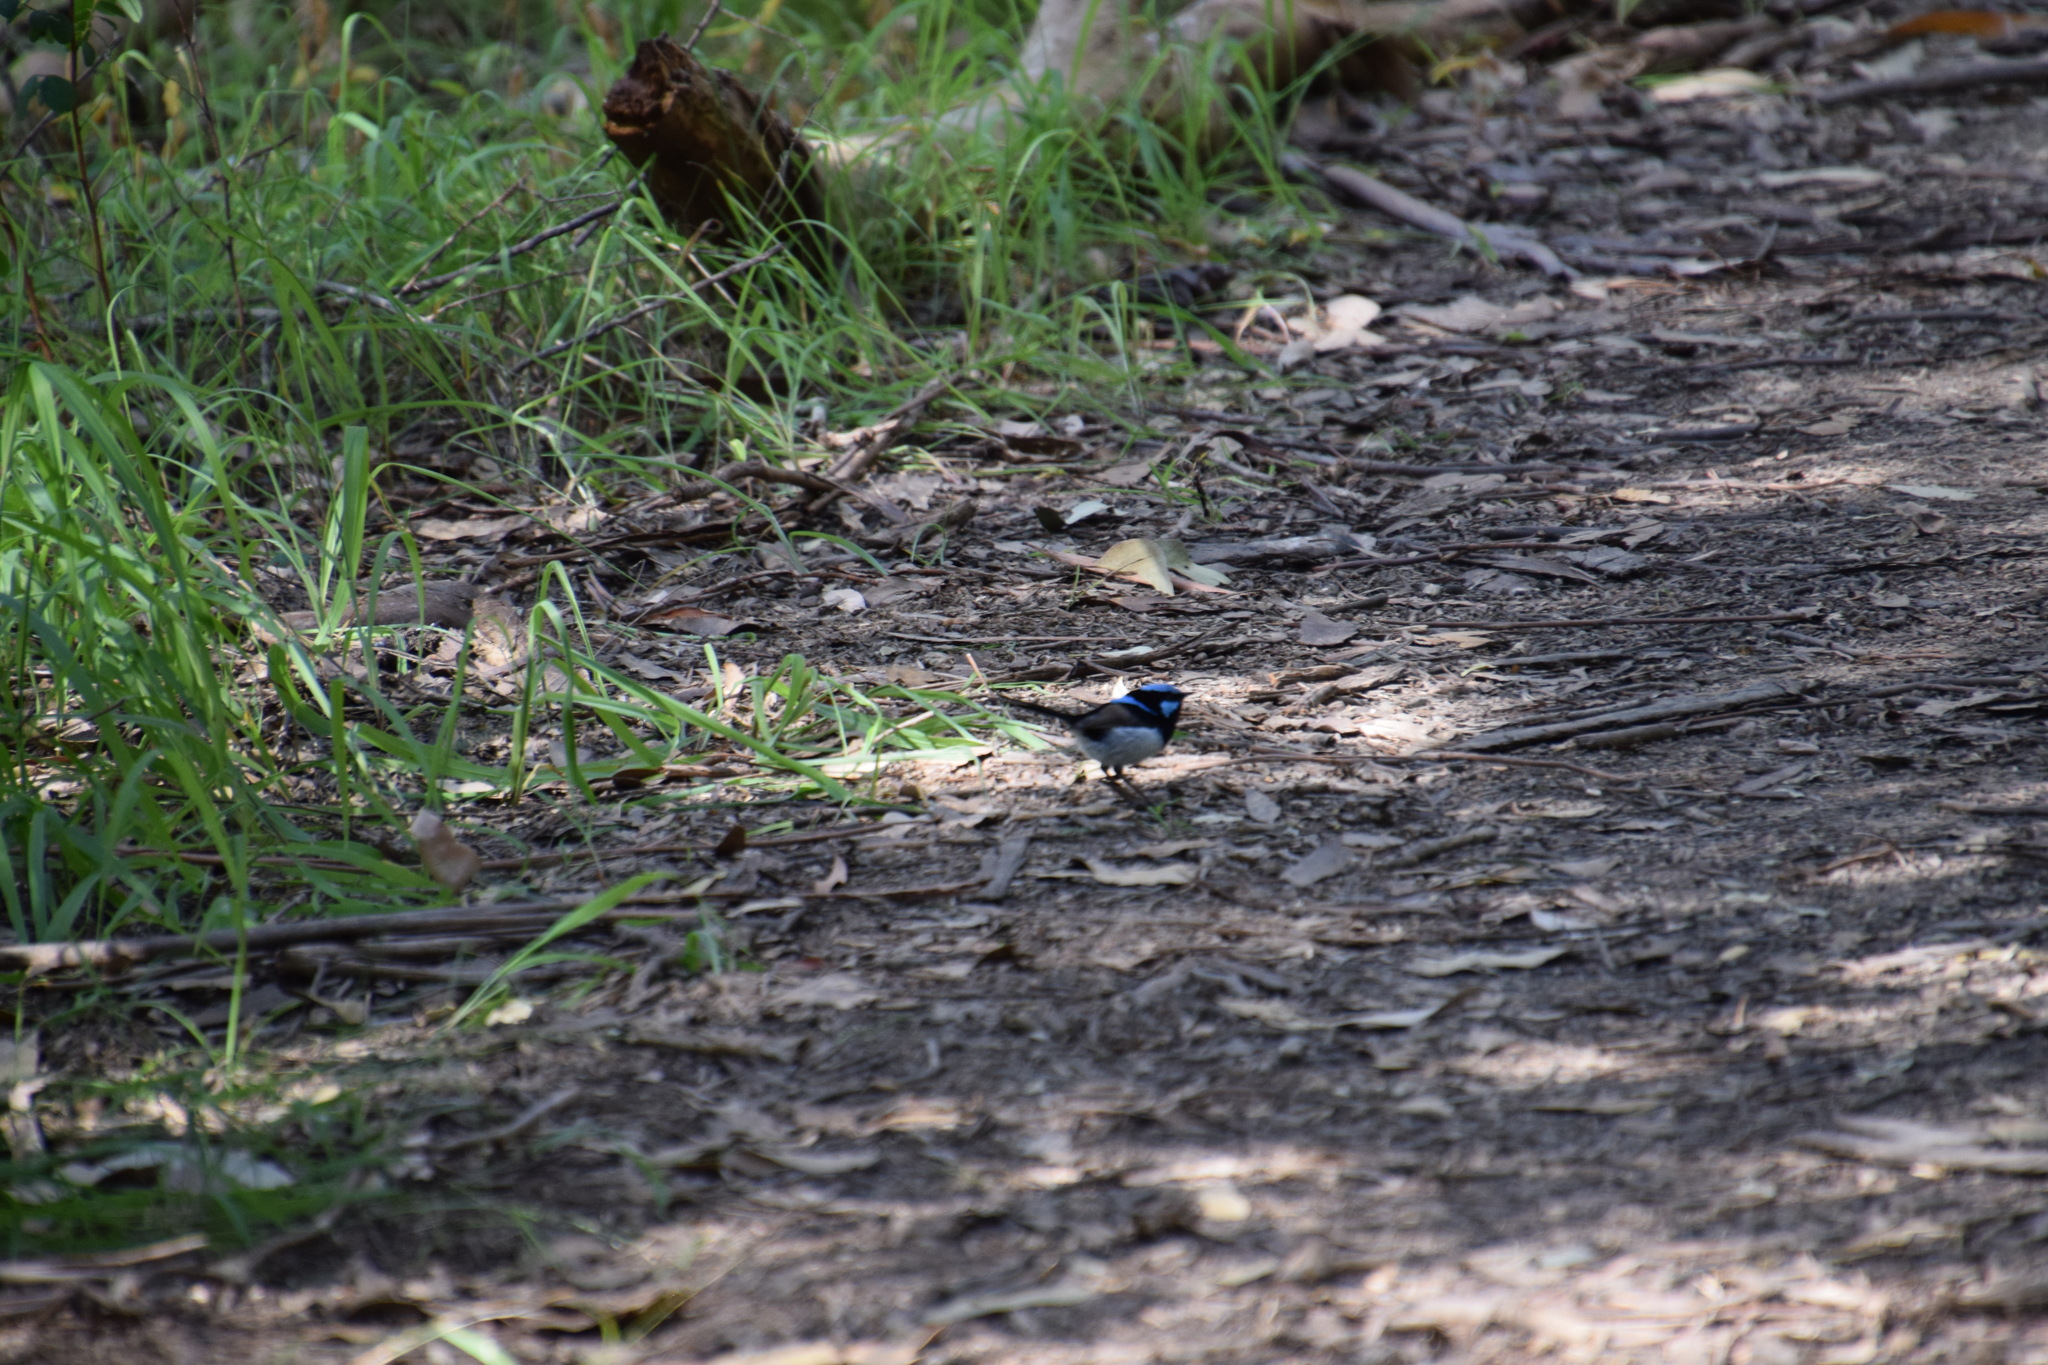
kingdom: Animalia
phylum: Chordata
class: Aves
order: Passeriformes
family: Maluridae
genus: Malurus
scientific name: Malurus cyaneus
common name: Superb fairywren
